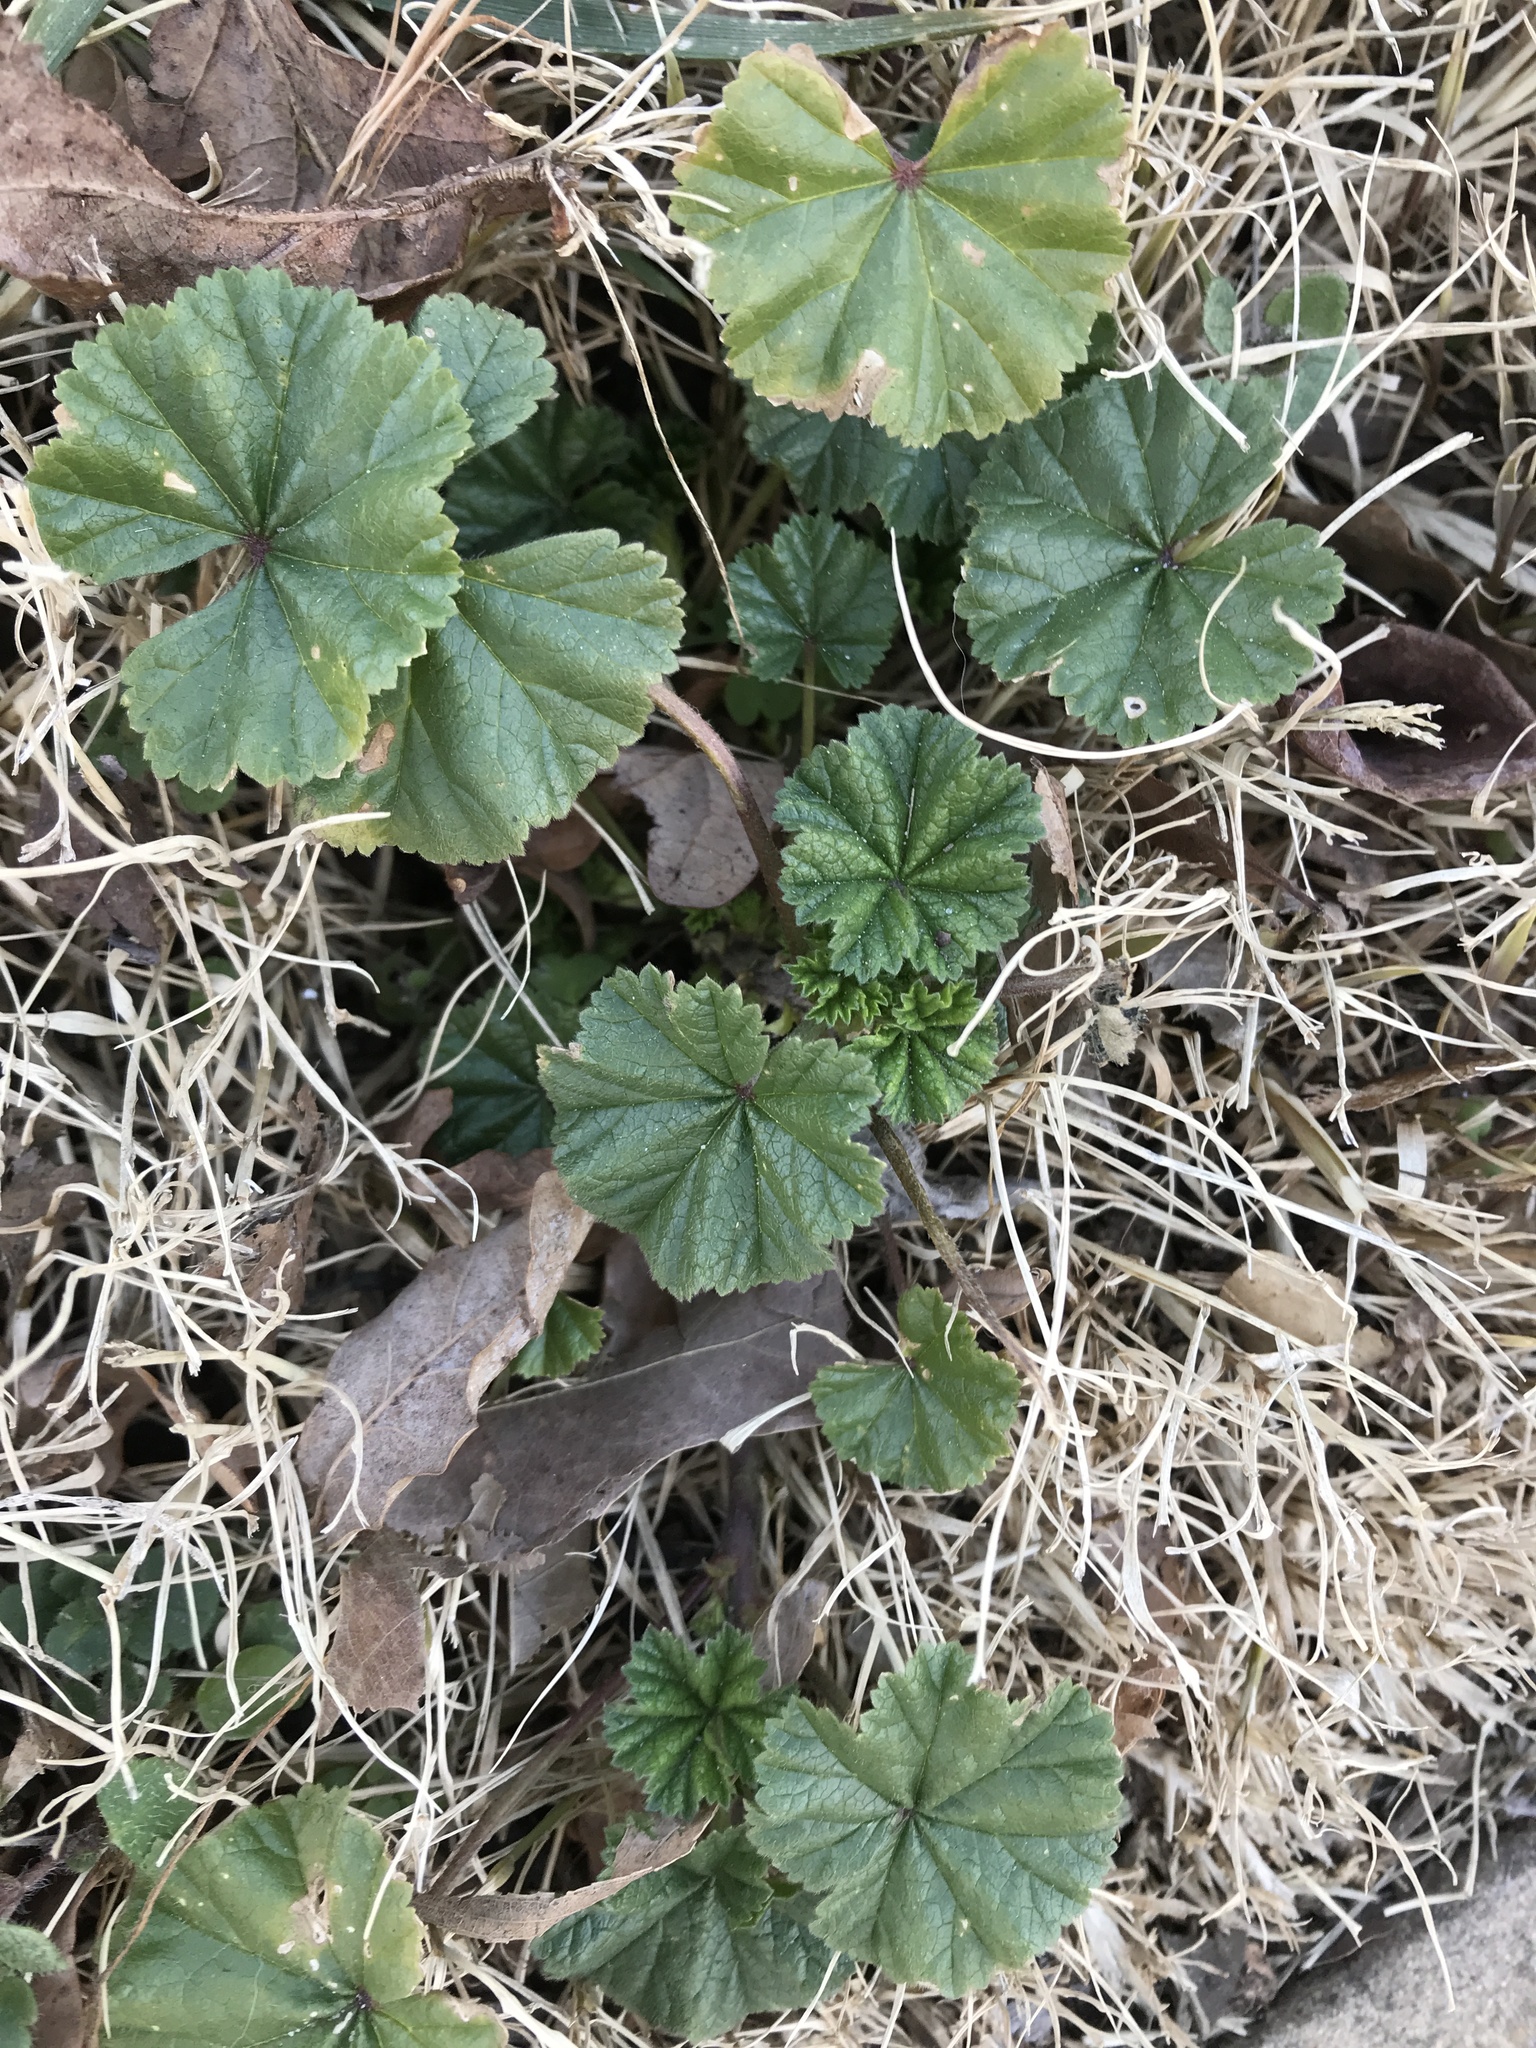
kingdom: Plantae
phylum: Tracheophyta
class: Magnoliopsida
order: Malvales
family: Malvaceae
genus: Malva
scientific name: Malva neglecta
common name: Common mallow
